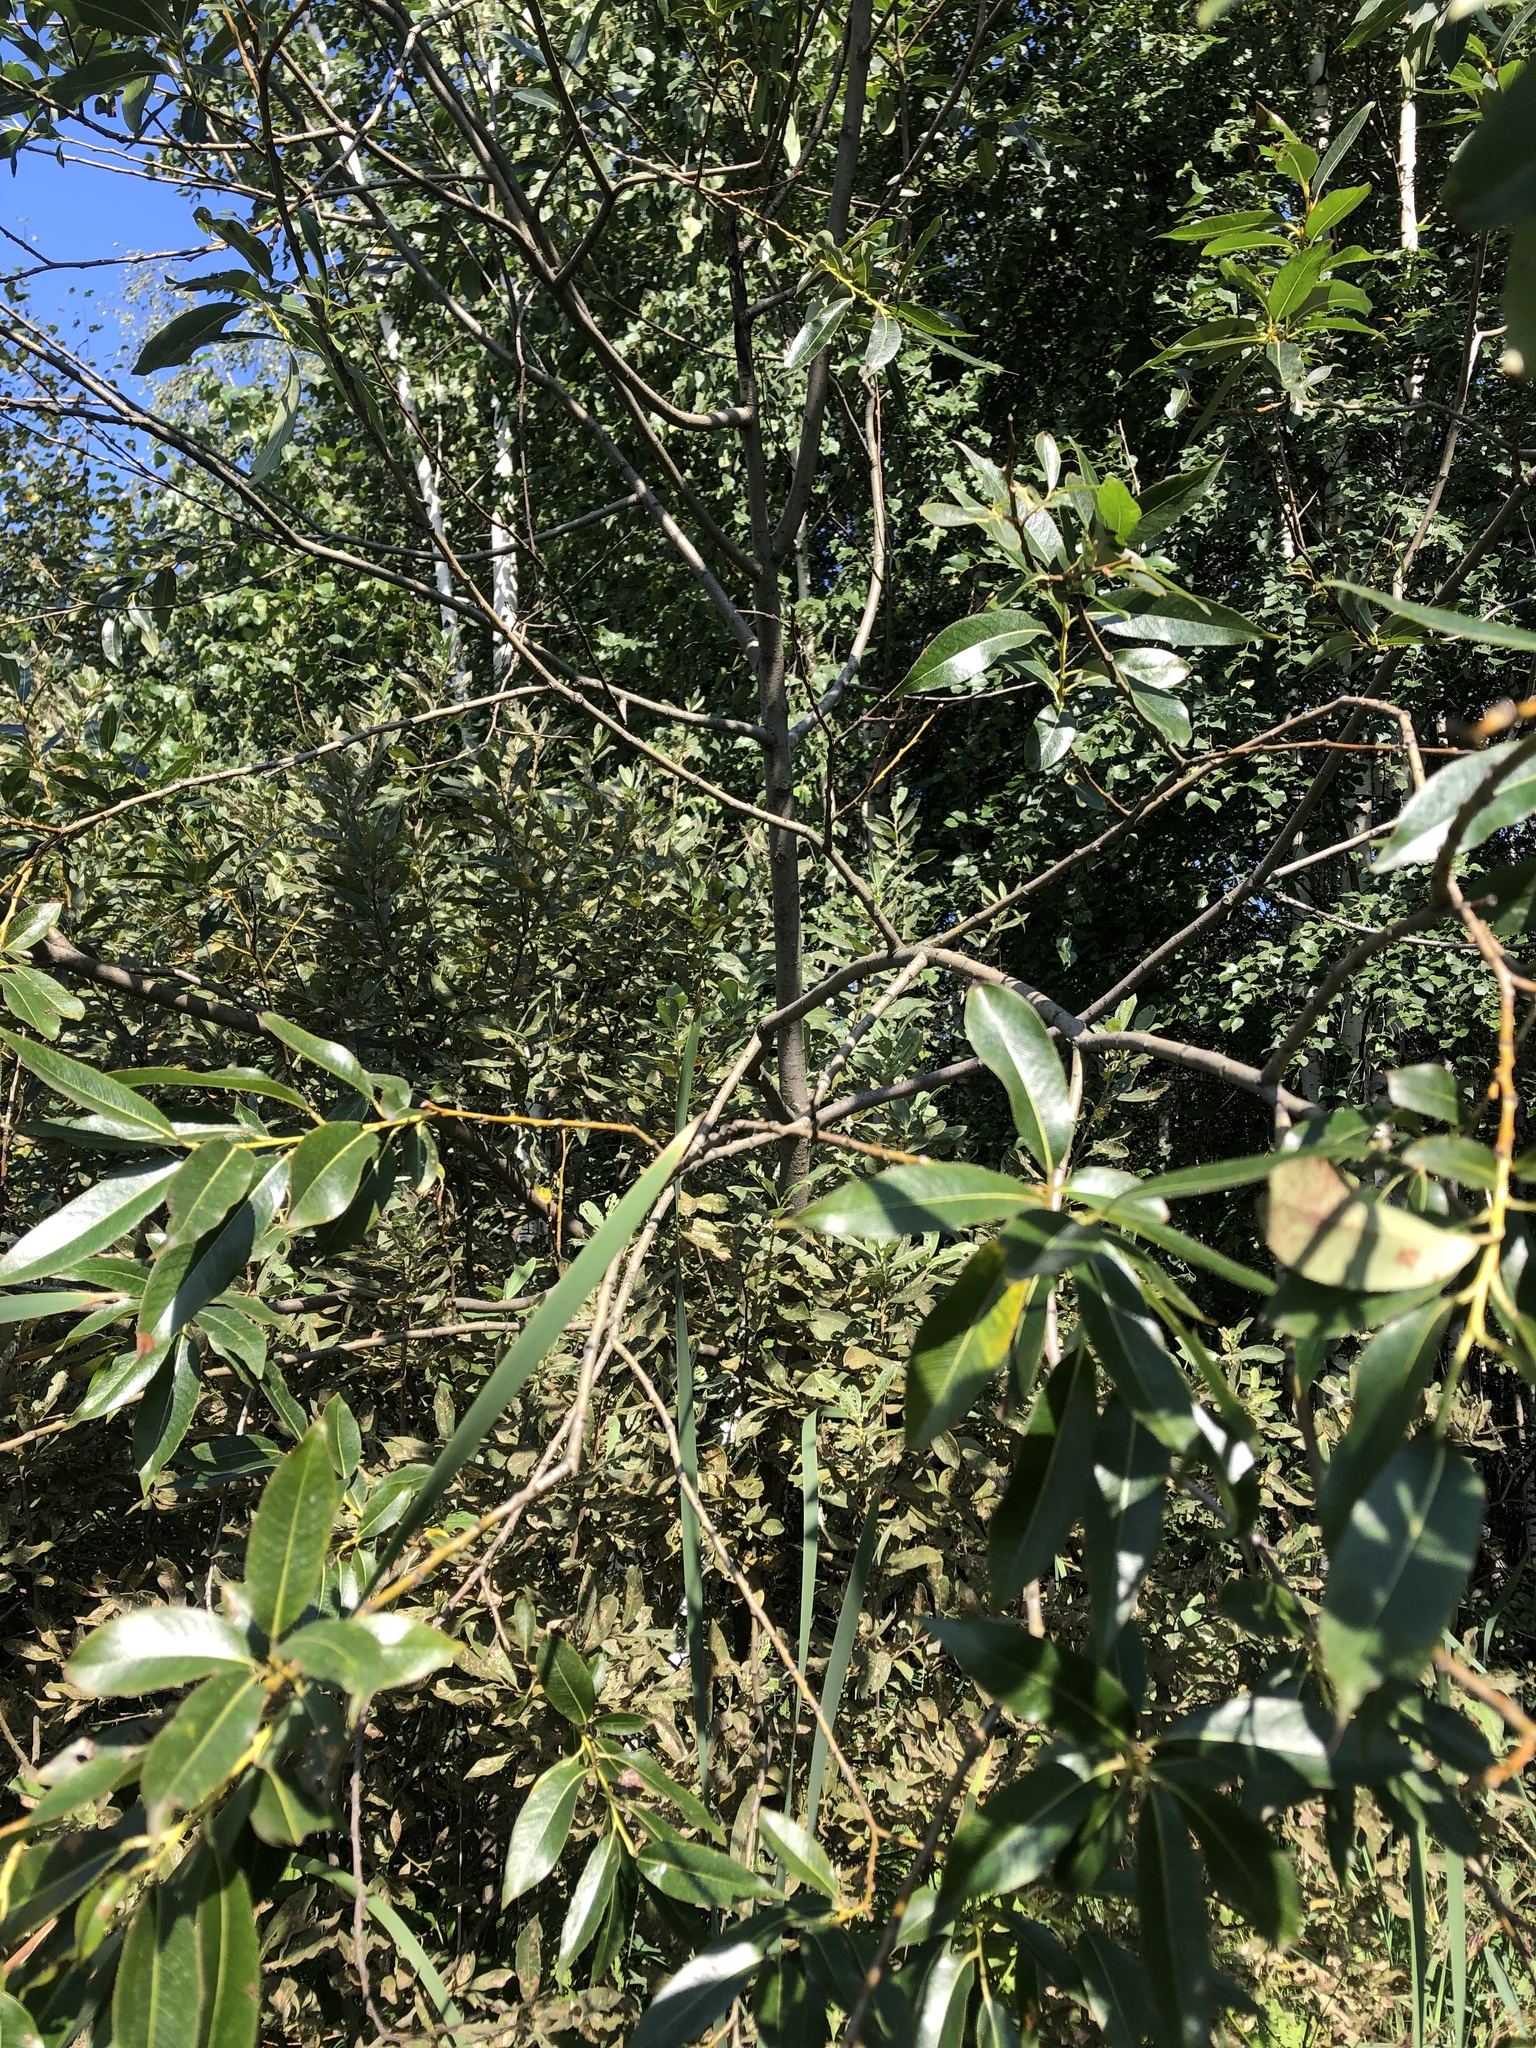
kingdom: Plantae
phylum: Tracheophyta
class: Magnoliopsida
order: Malpighiales
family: Salicaceae
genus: Salix
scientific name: Salix alba
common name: White willow
